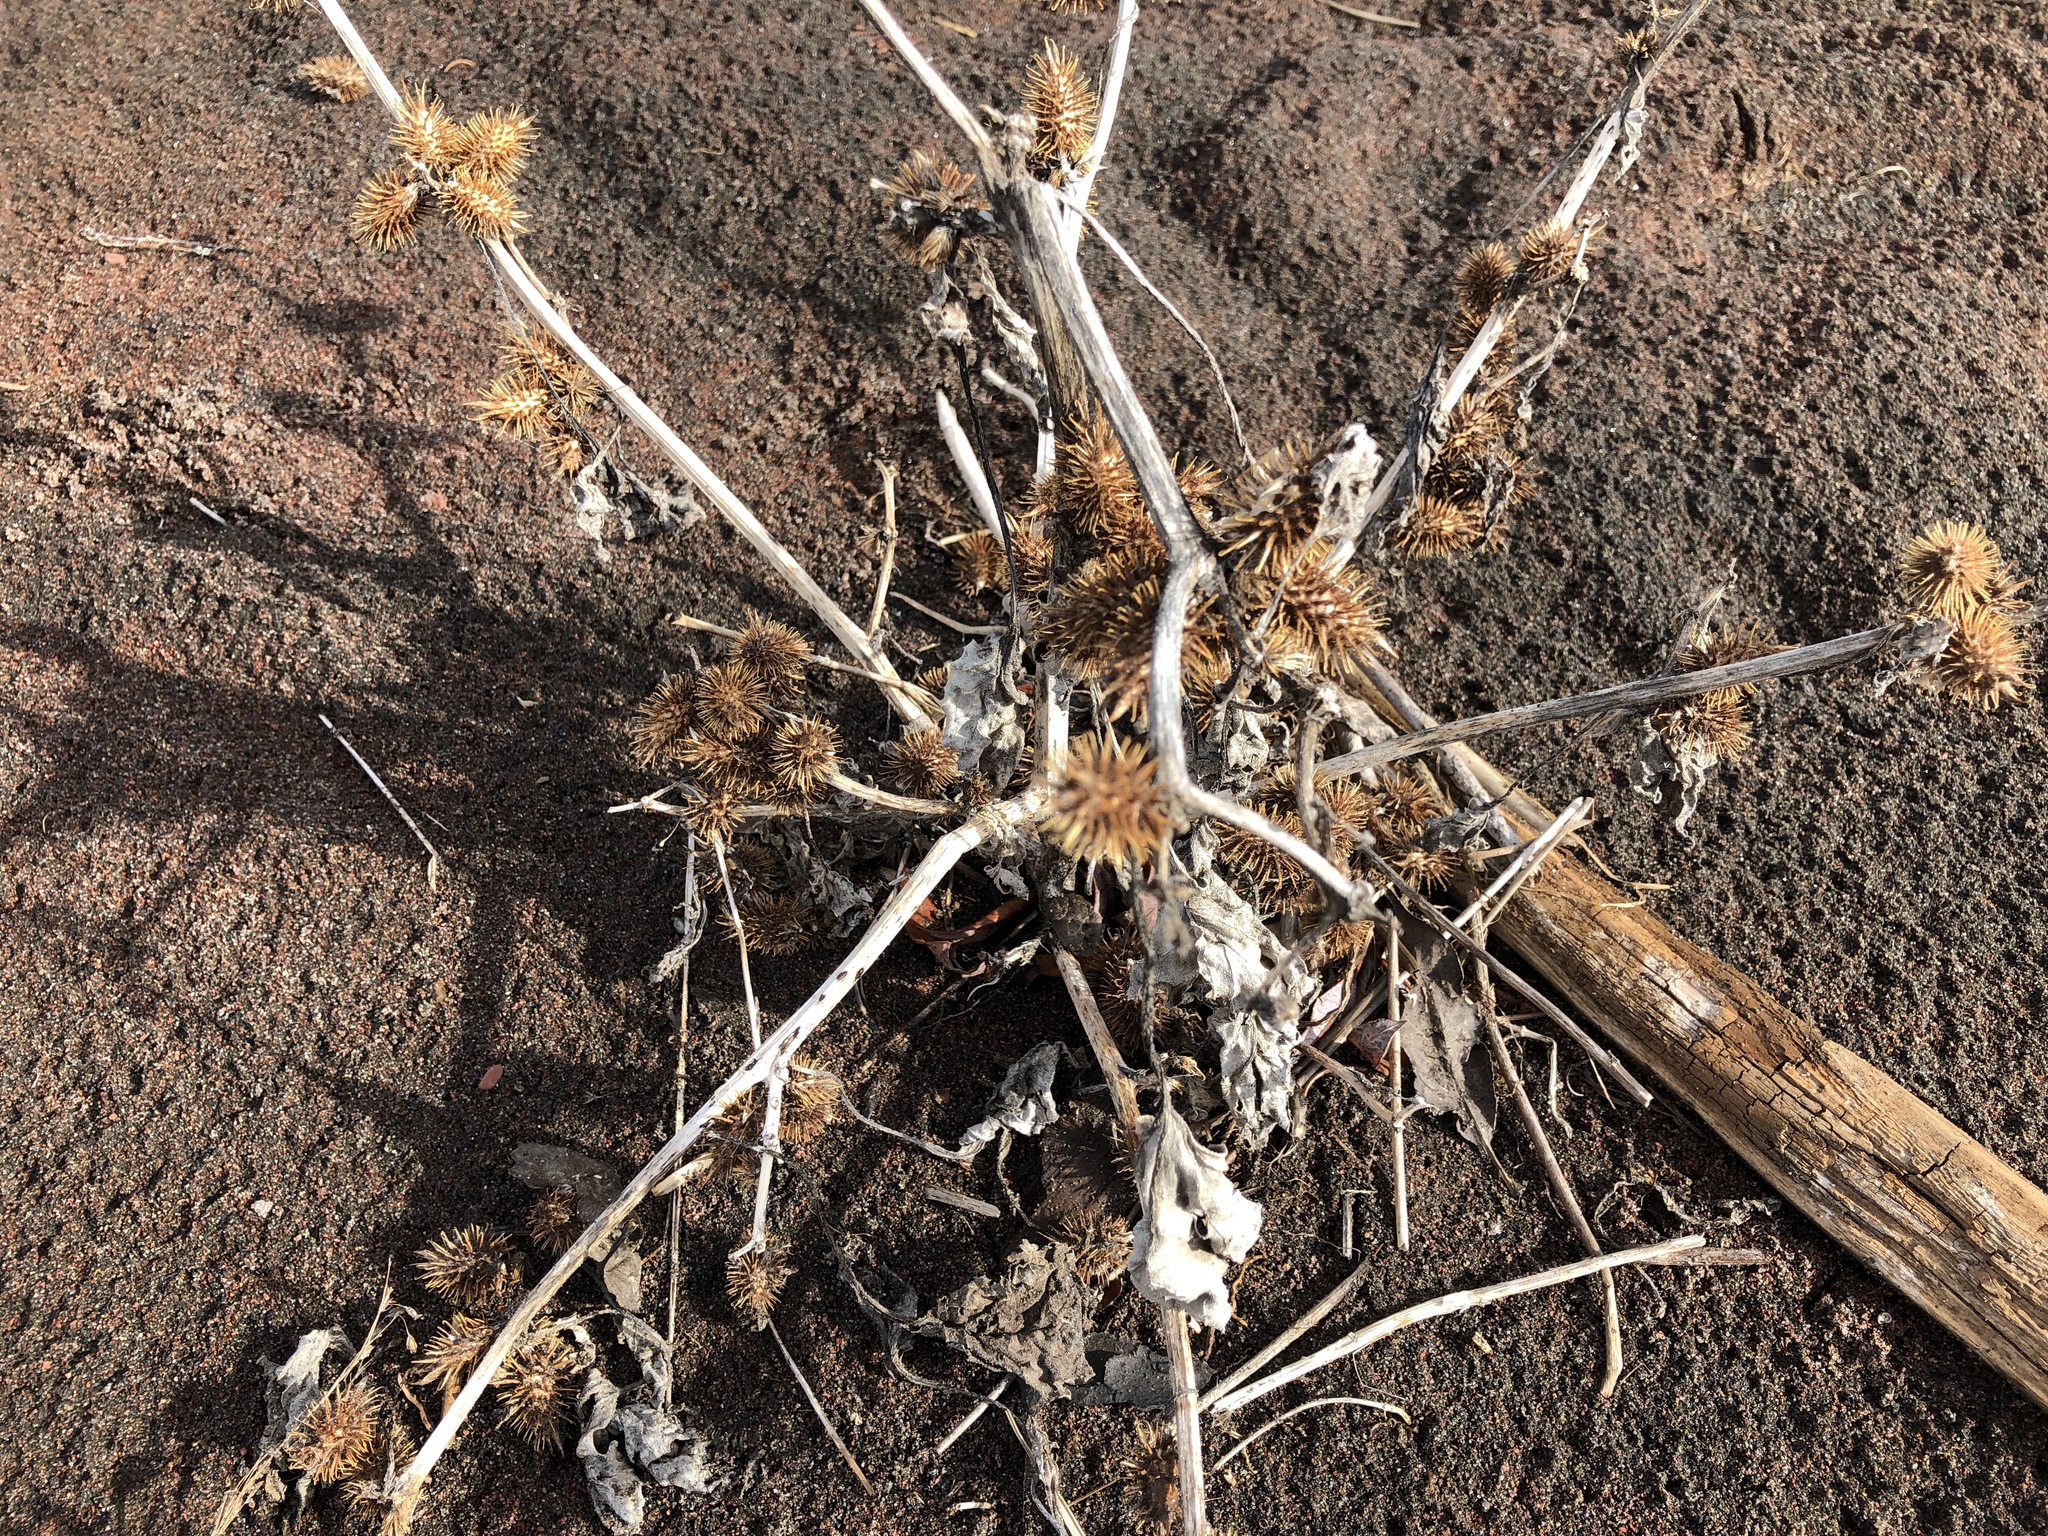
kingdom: Plantae
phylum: Tracheophyta
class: Magnoliopsida
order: Asterales
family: Asteraceae
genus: Xanthium
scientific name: Xanthium strumarium
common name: Rough cocklebur
